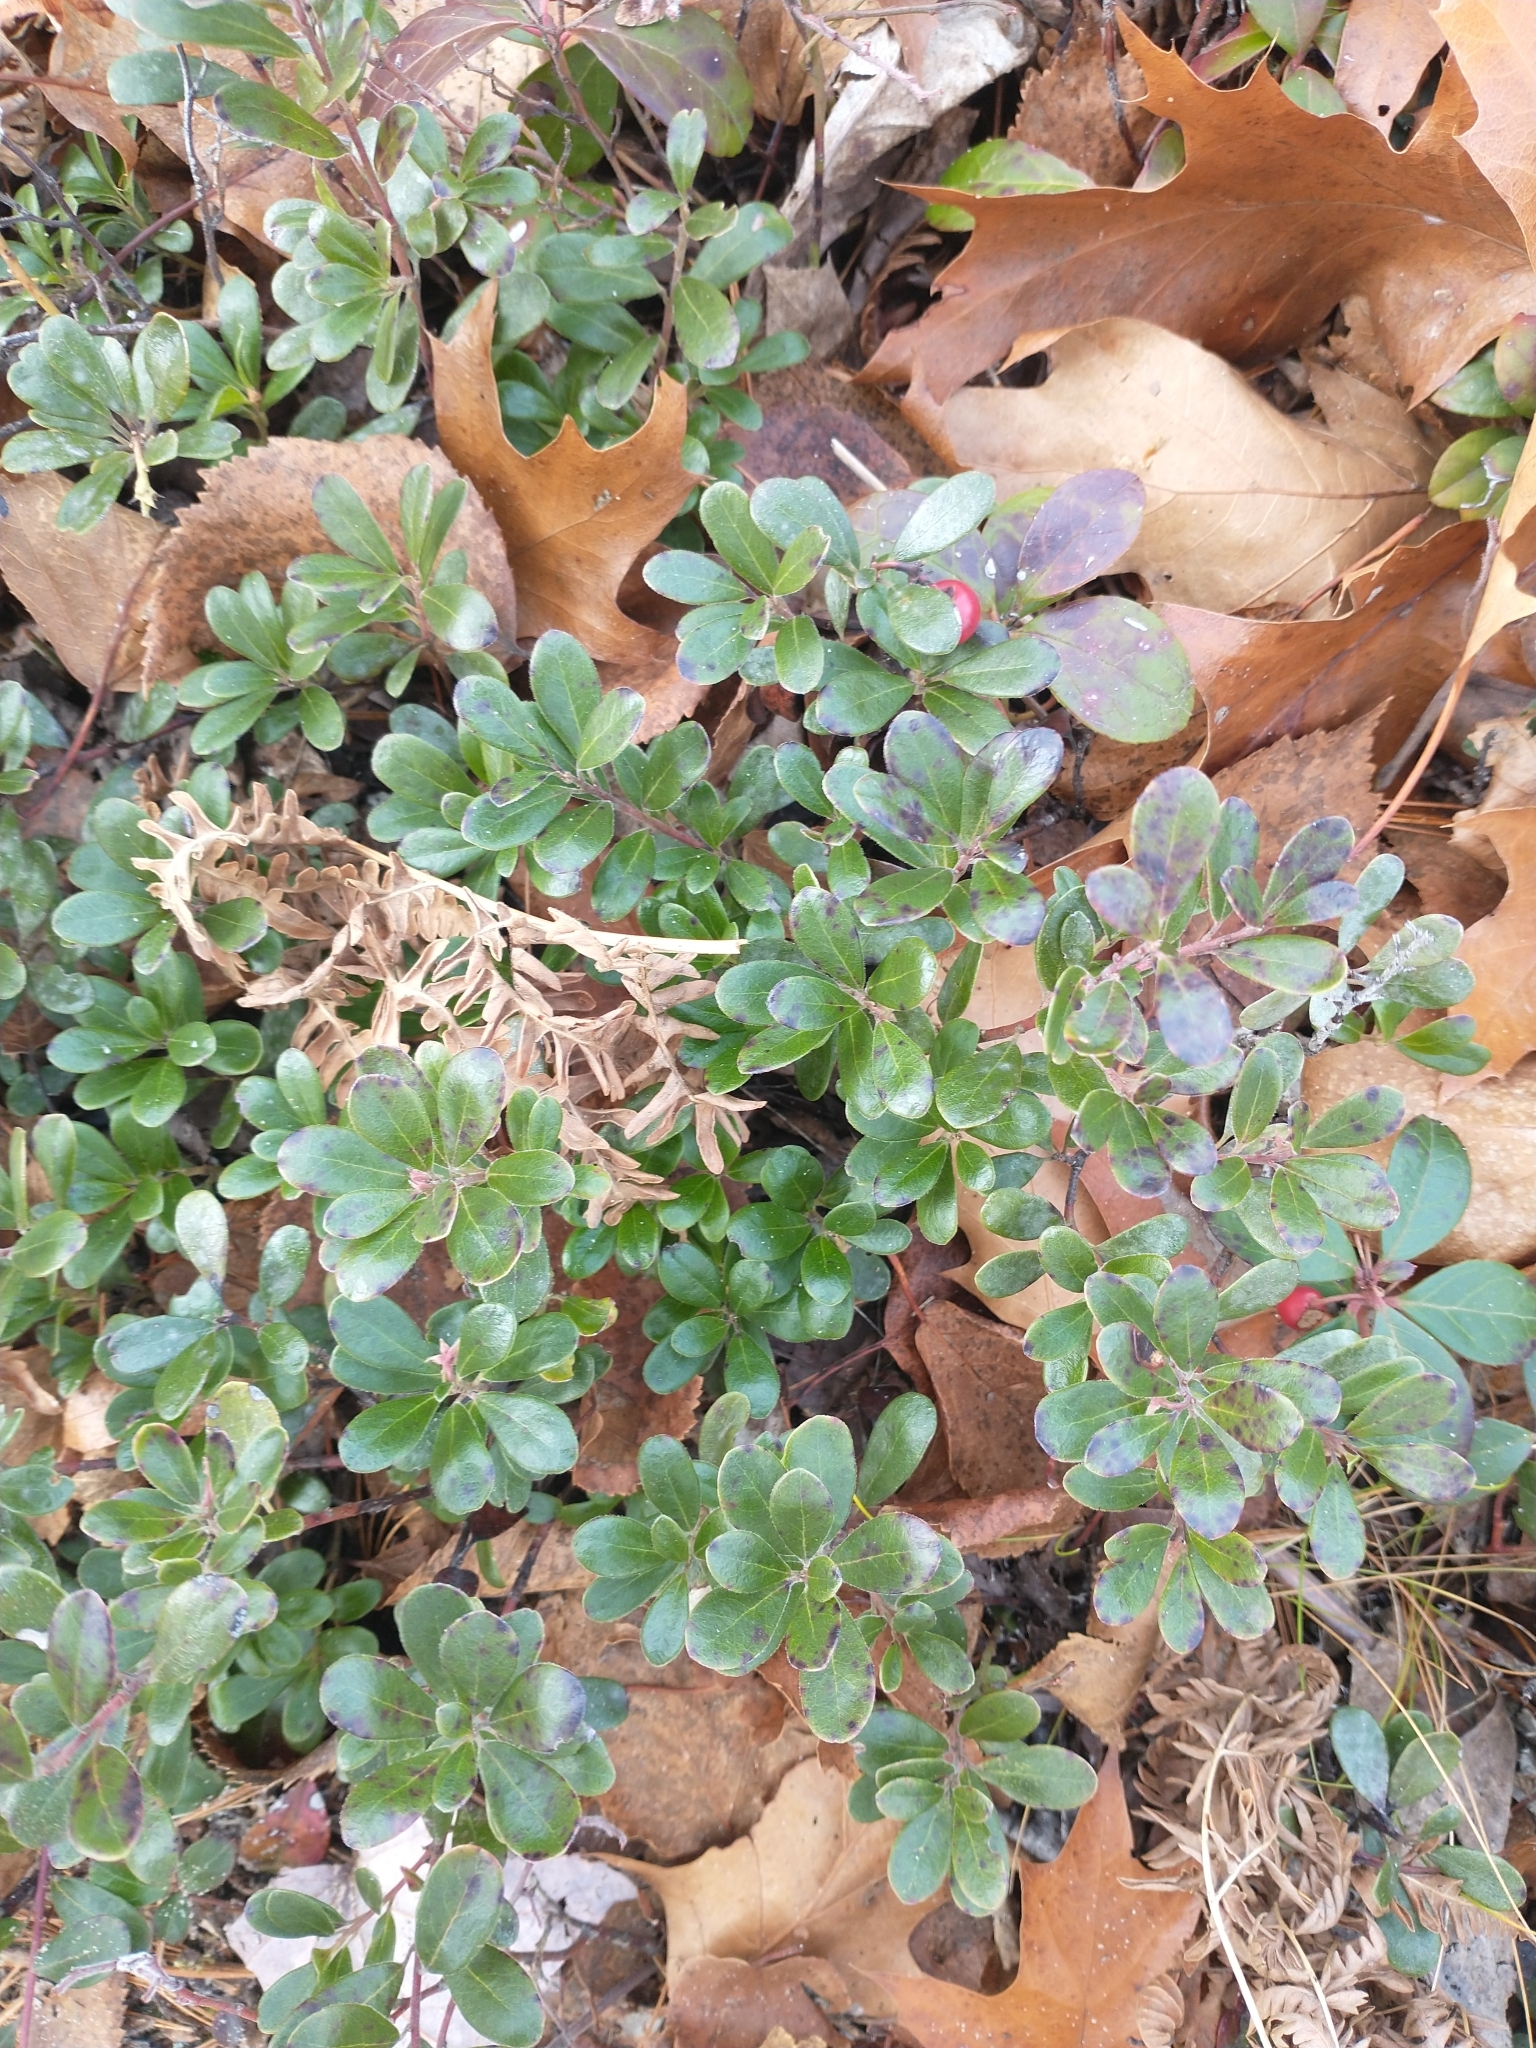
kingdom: Plantae
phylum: Tracheophyta
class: Magnoliopsida
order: Ericales
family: Ericaceae
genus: Arctostaphylos
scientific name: Arctostaphylos uva-ursi
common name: Bearberry
